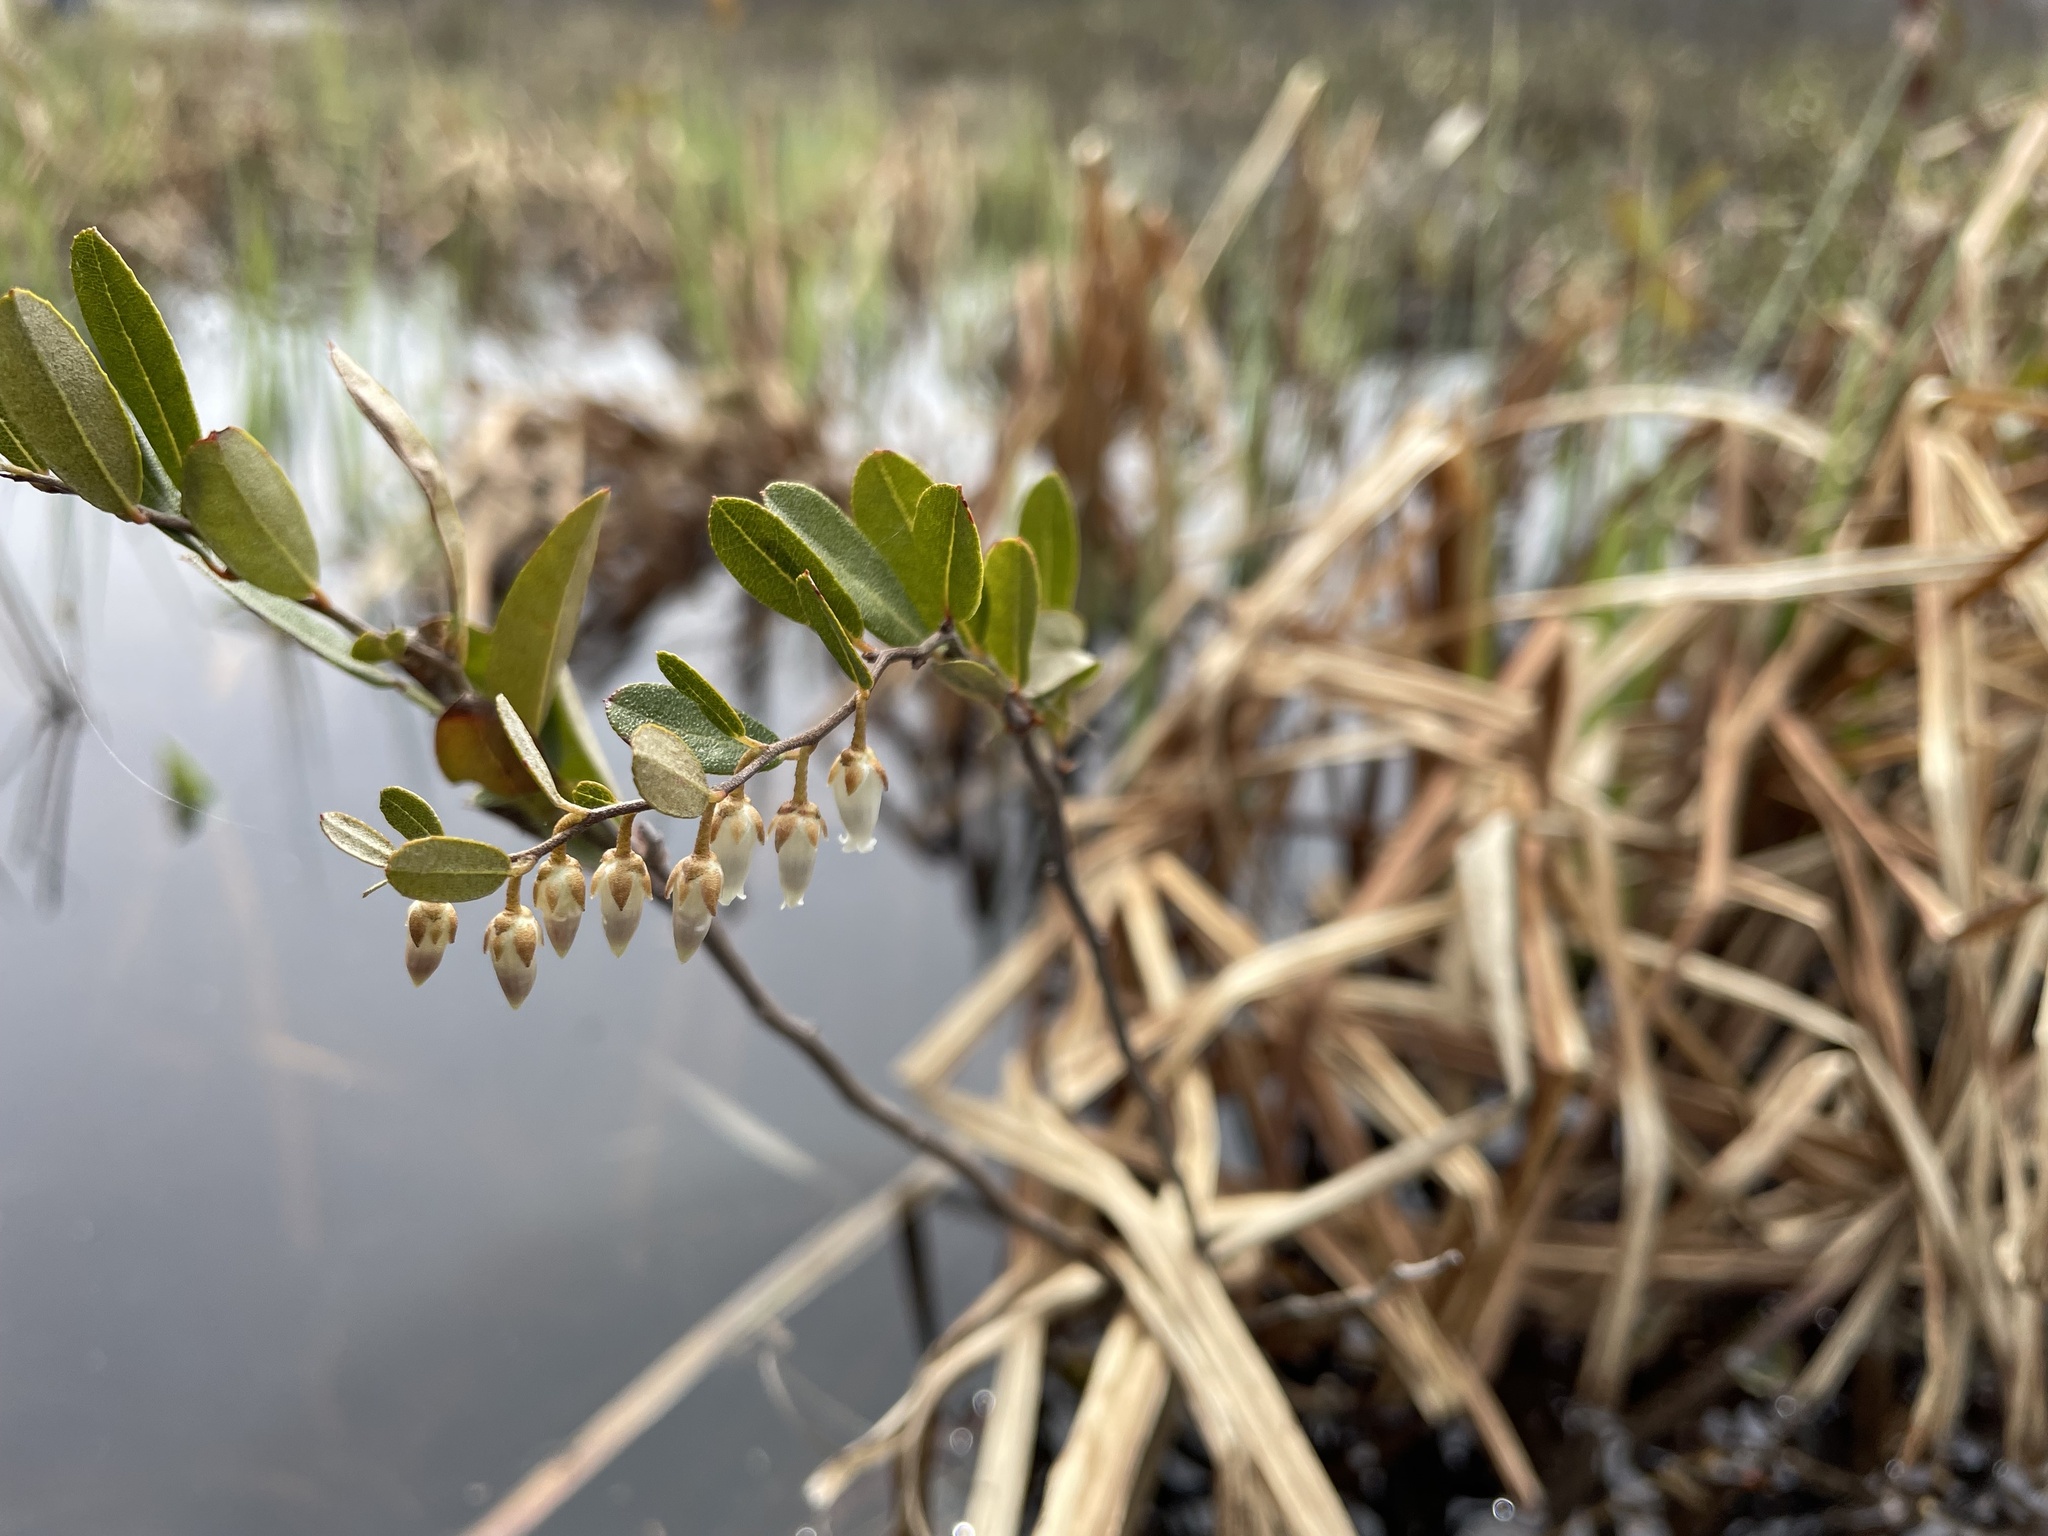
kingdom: Plantae
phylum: Tracheophyta
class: Magnoliopsida
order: Ericales
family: Ericaceae
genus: Chamaedaphne
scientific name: Chamaedaphne calyculata
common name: Leatherleaf
